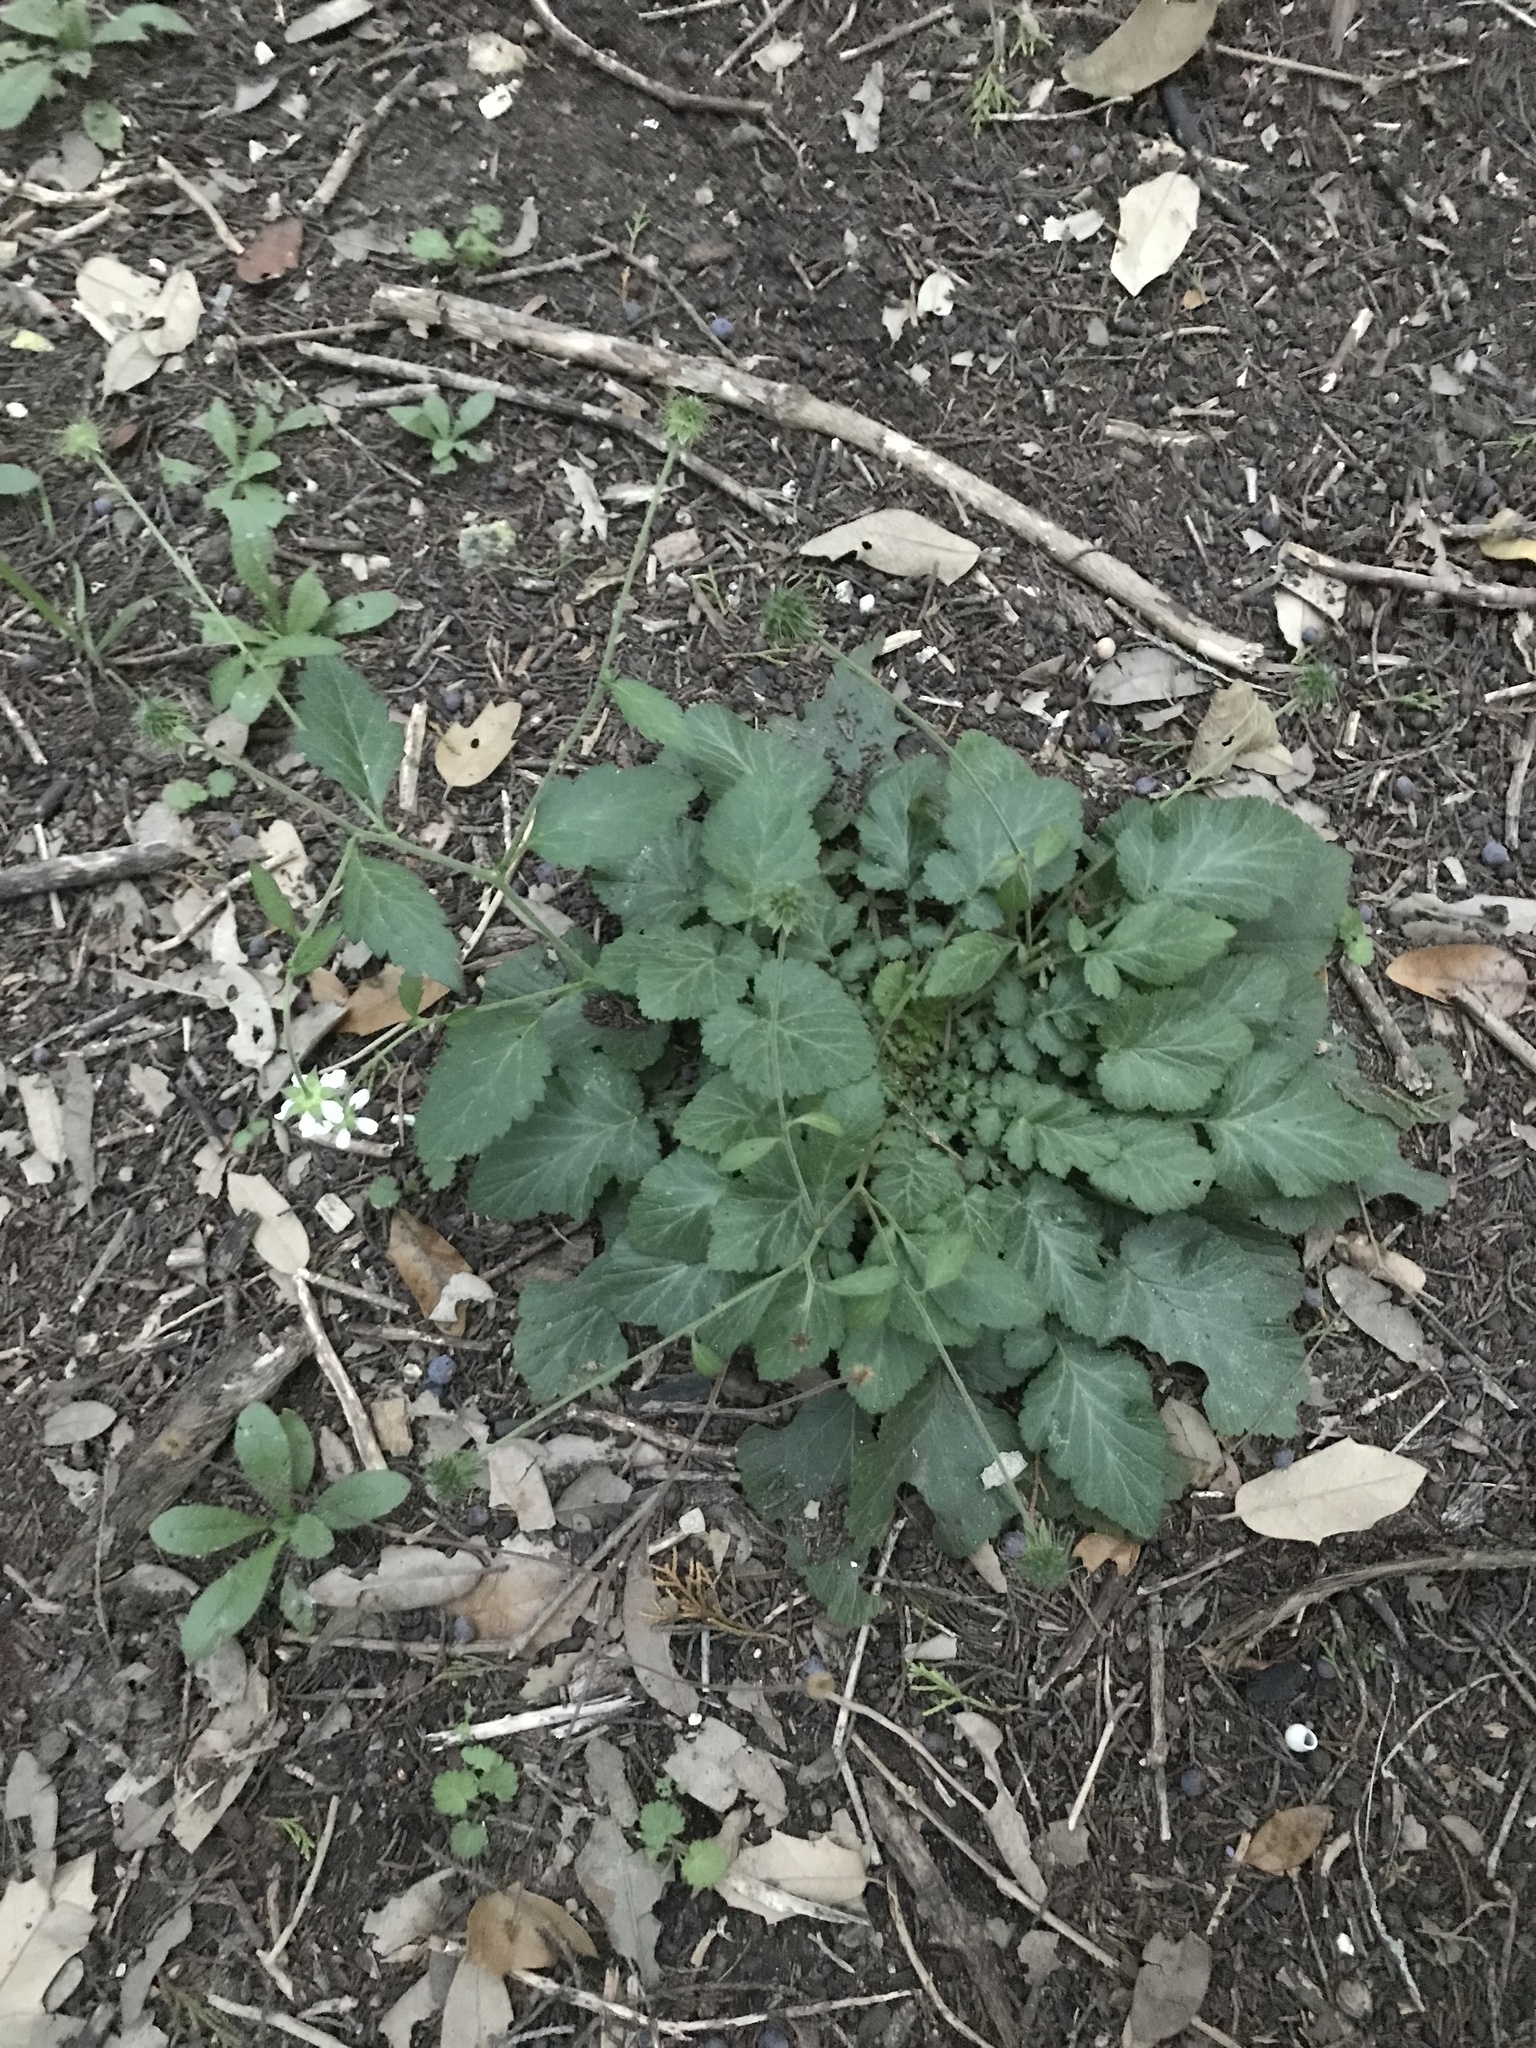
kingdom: Plantae
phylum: Tracheophyta
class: Magnoliopsida
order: Rosales
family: Rosaceae
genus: Geum
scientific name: Geum canadense
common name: White avens
